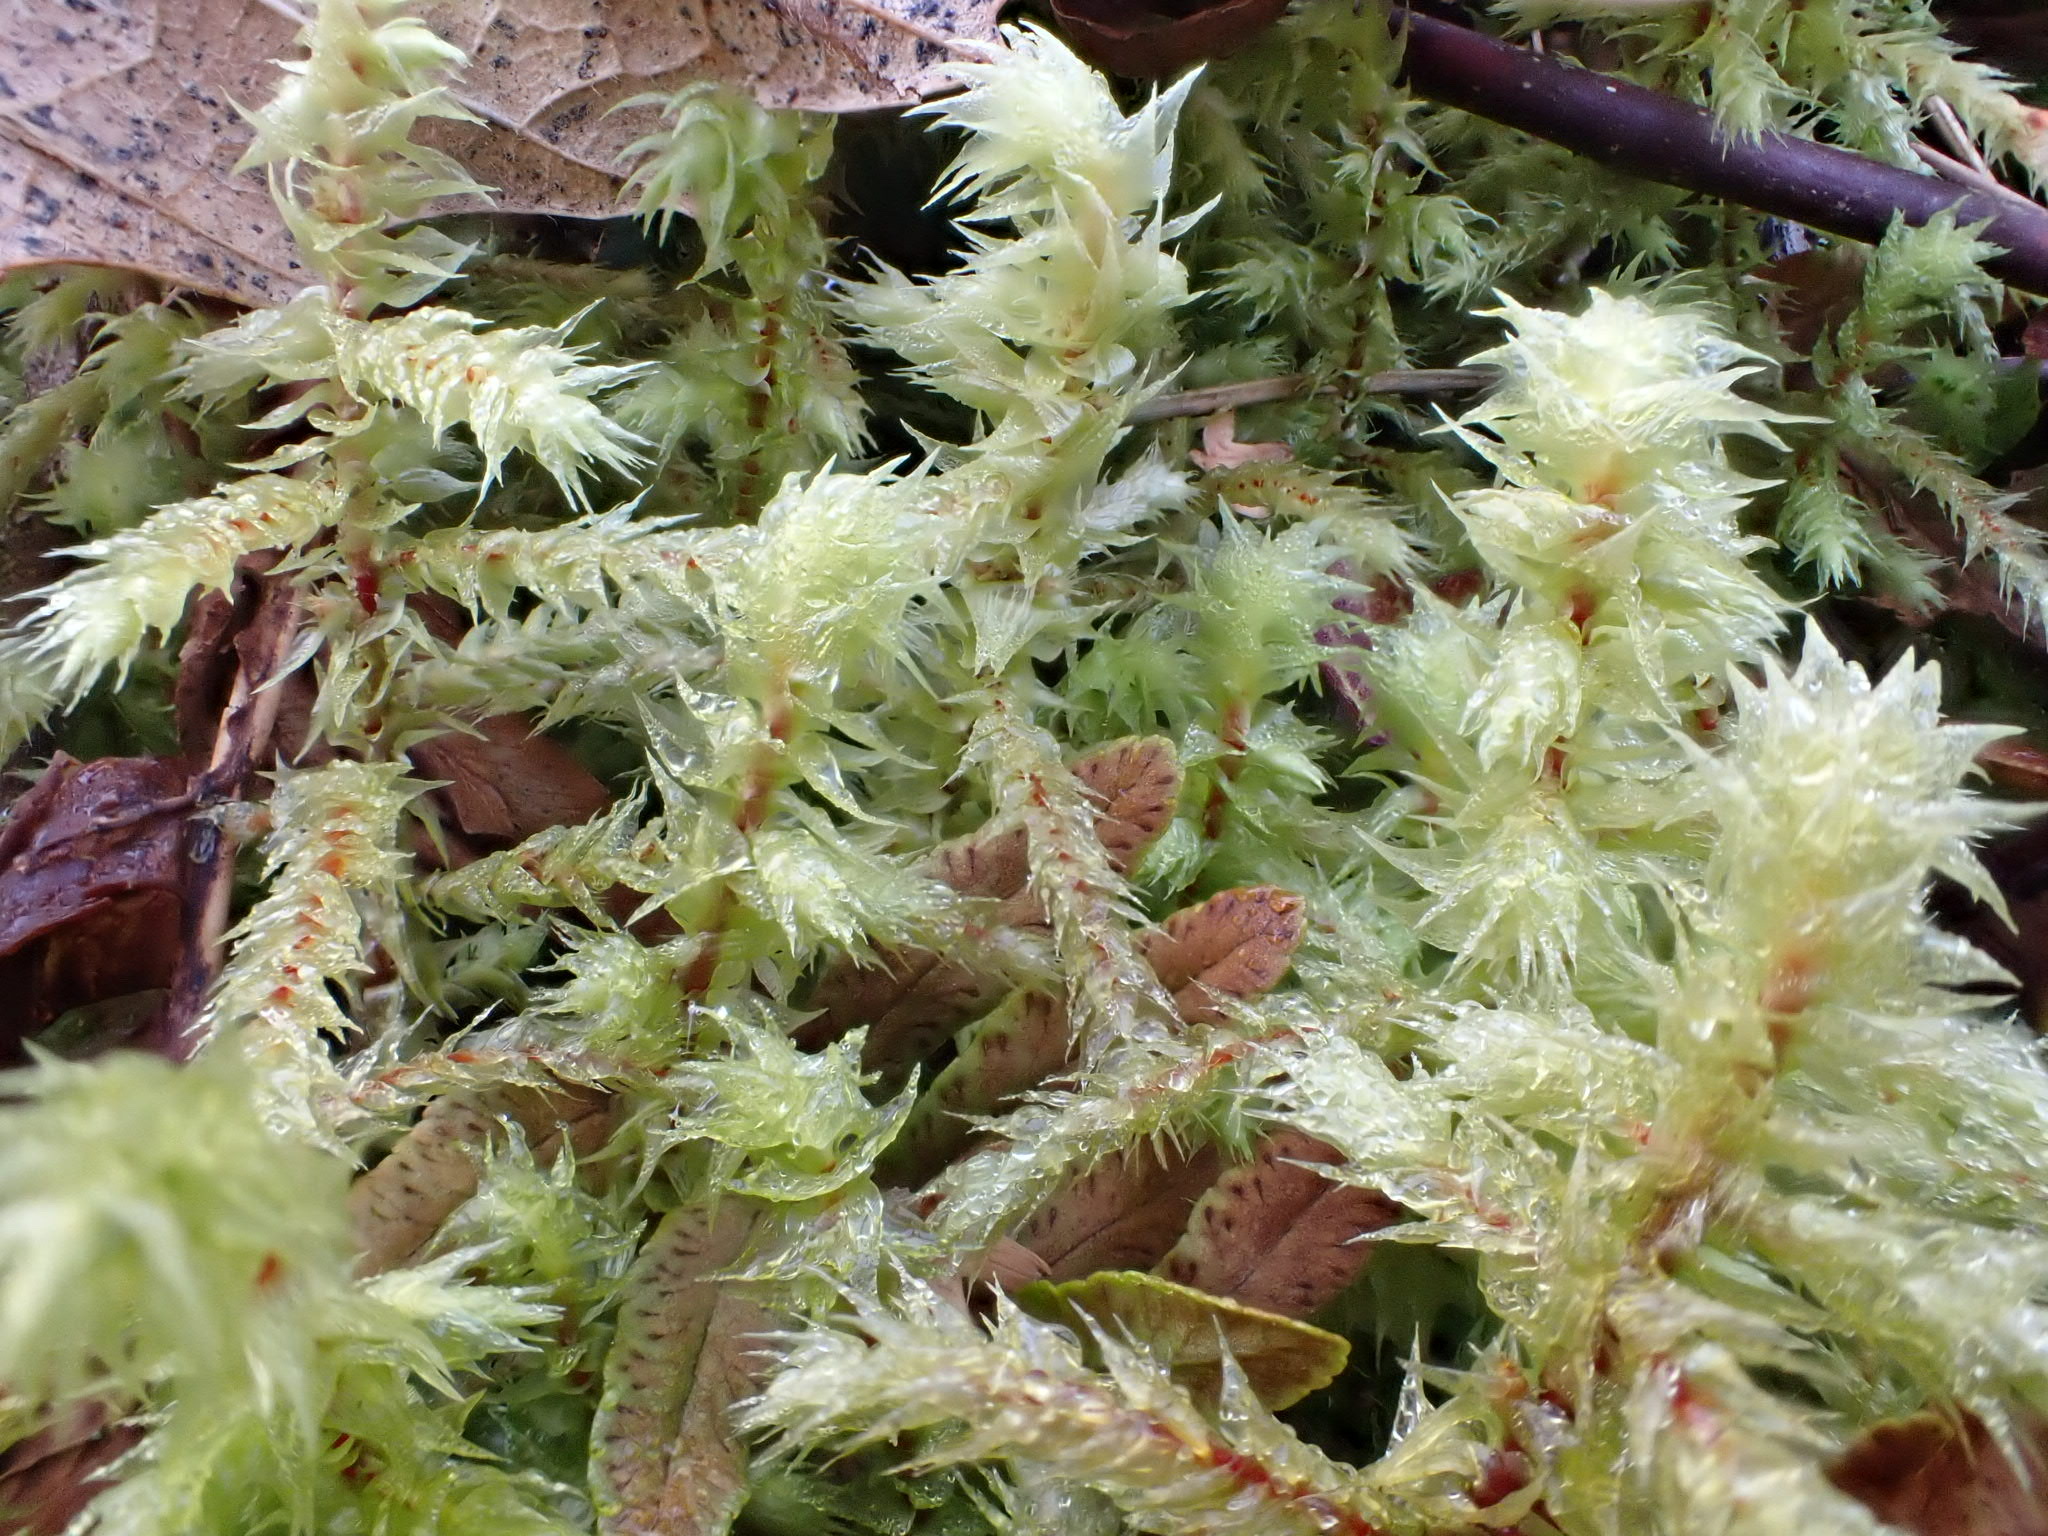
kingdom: Plantae
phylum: Bryophyta
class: Bryopsida
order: Hypnales
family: Hylocomiaceae
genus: Hylocomiadelphus
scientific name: Hylocomiadelphus triquetrus
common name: Rough goose neck moss
